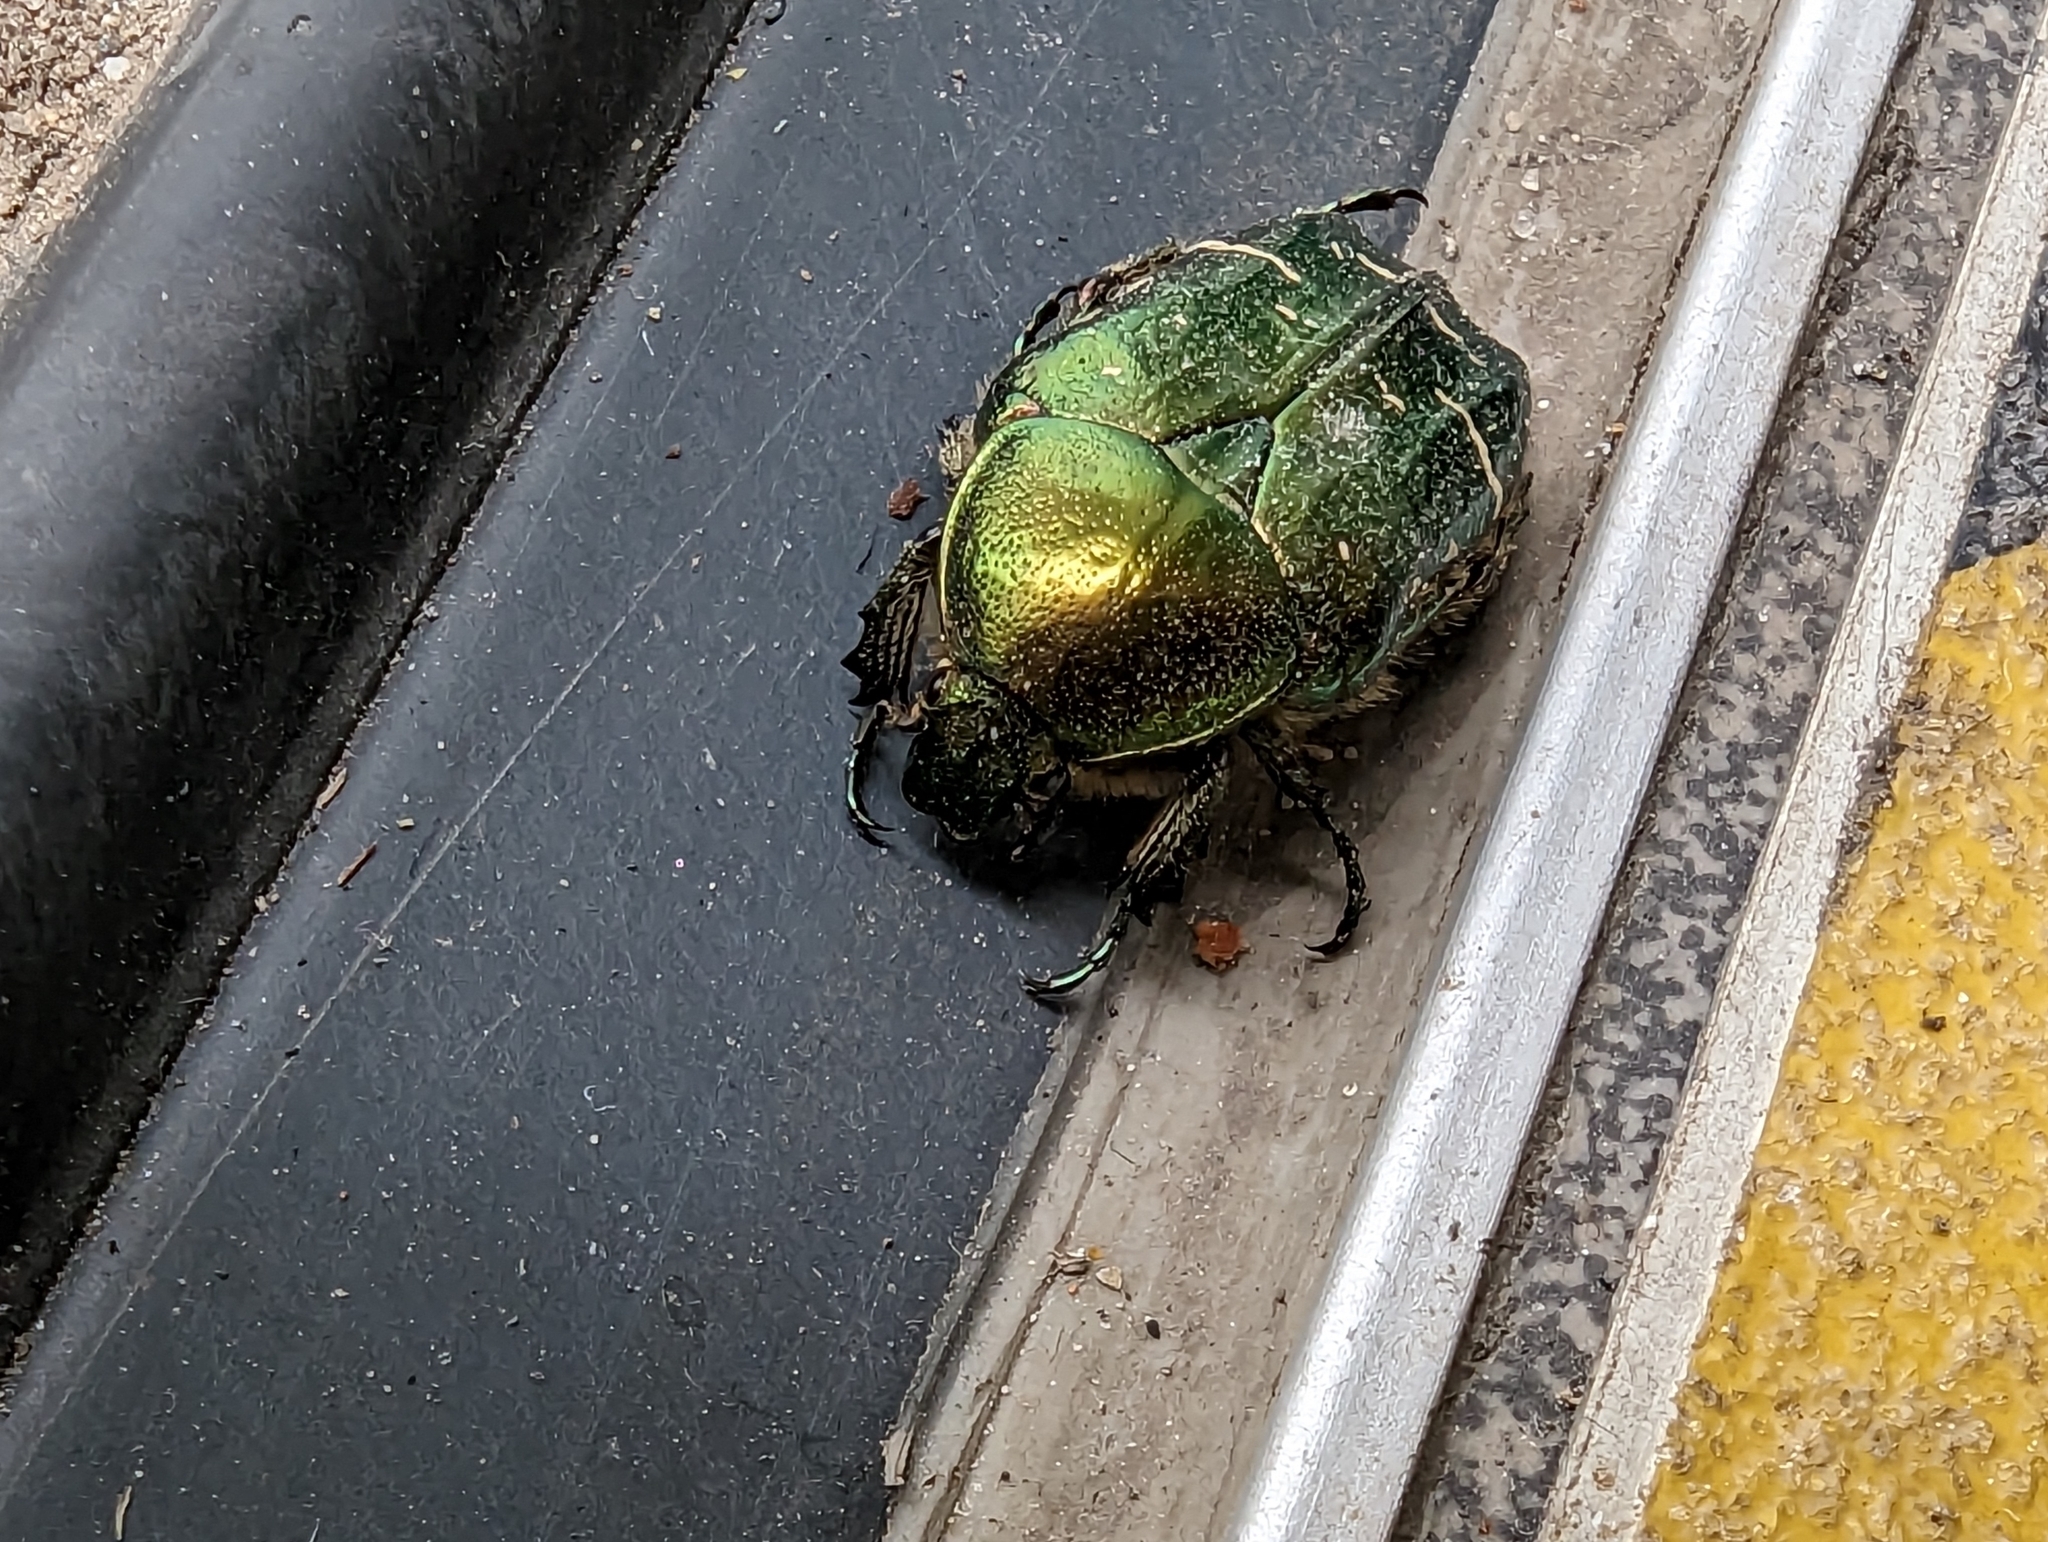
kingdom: Animalia
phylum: Arthropoda
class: Insecta
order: Coleoptera
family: Scarabaeidae
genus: Cetonia
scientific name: Cetonia aurata
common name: Rose chafer
